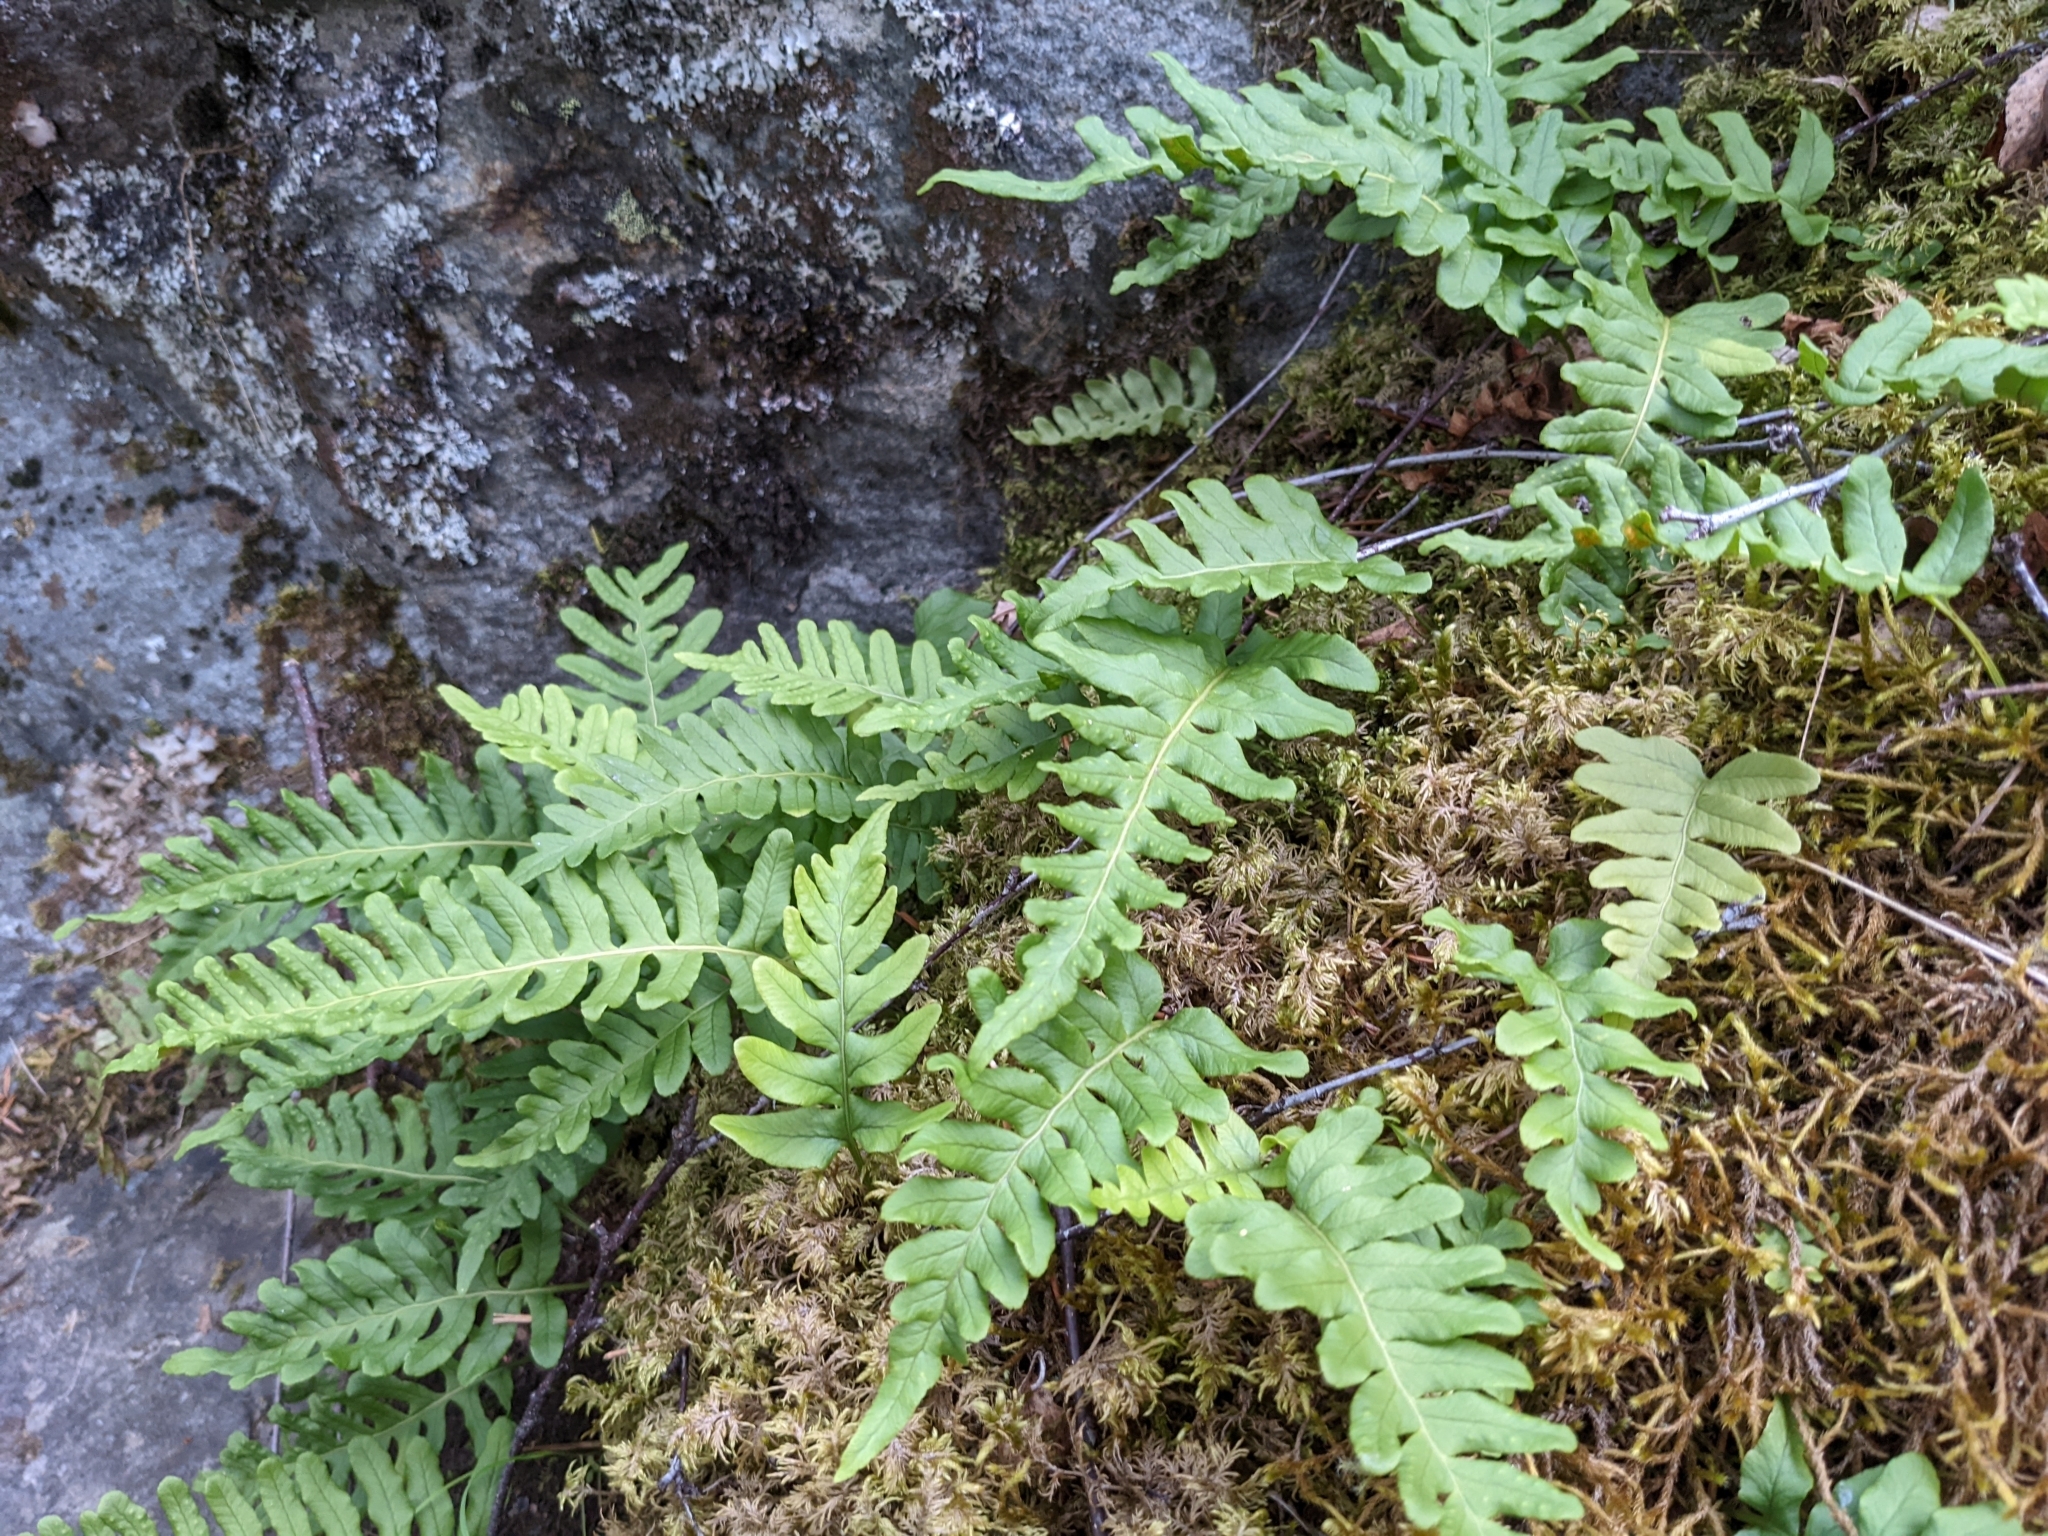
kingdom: Plantae
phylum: Tracheophyta
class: Polypodiopsida
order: Polypodiales
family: Polypodiaceae
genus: Polypodium
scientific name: Polypodium vulgare
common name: Common polypody
